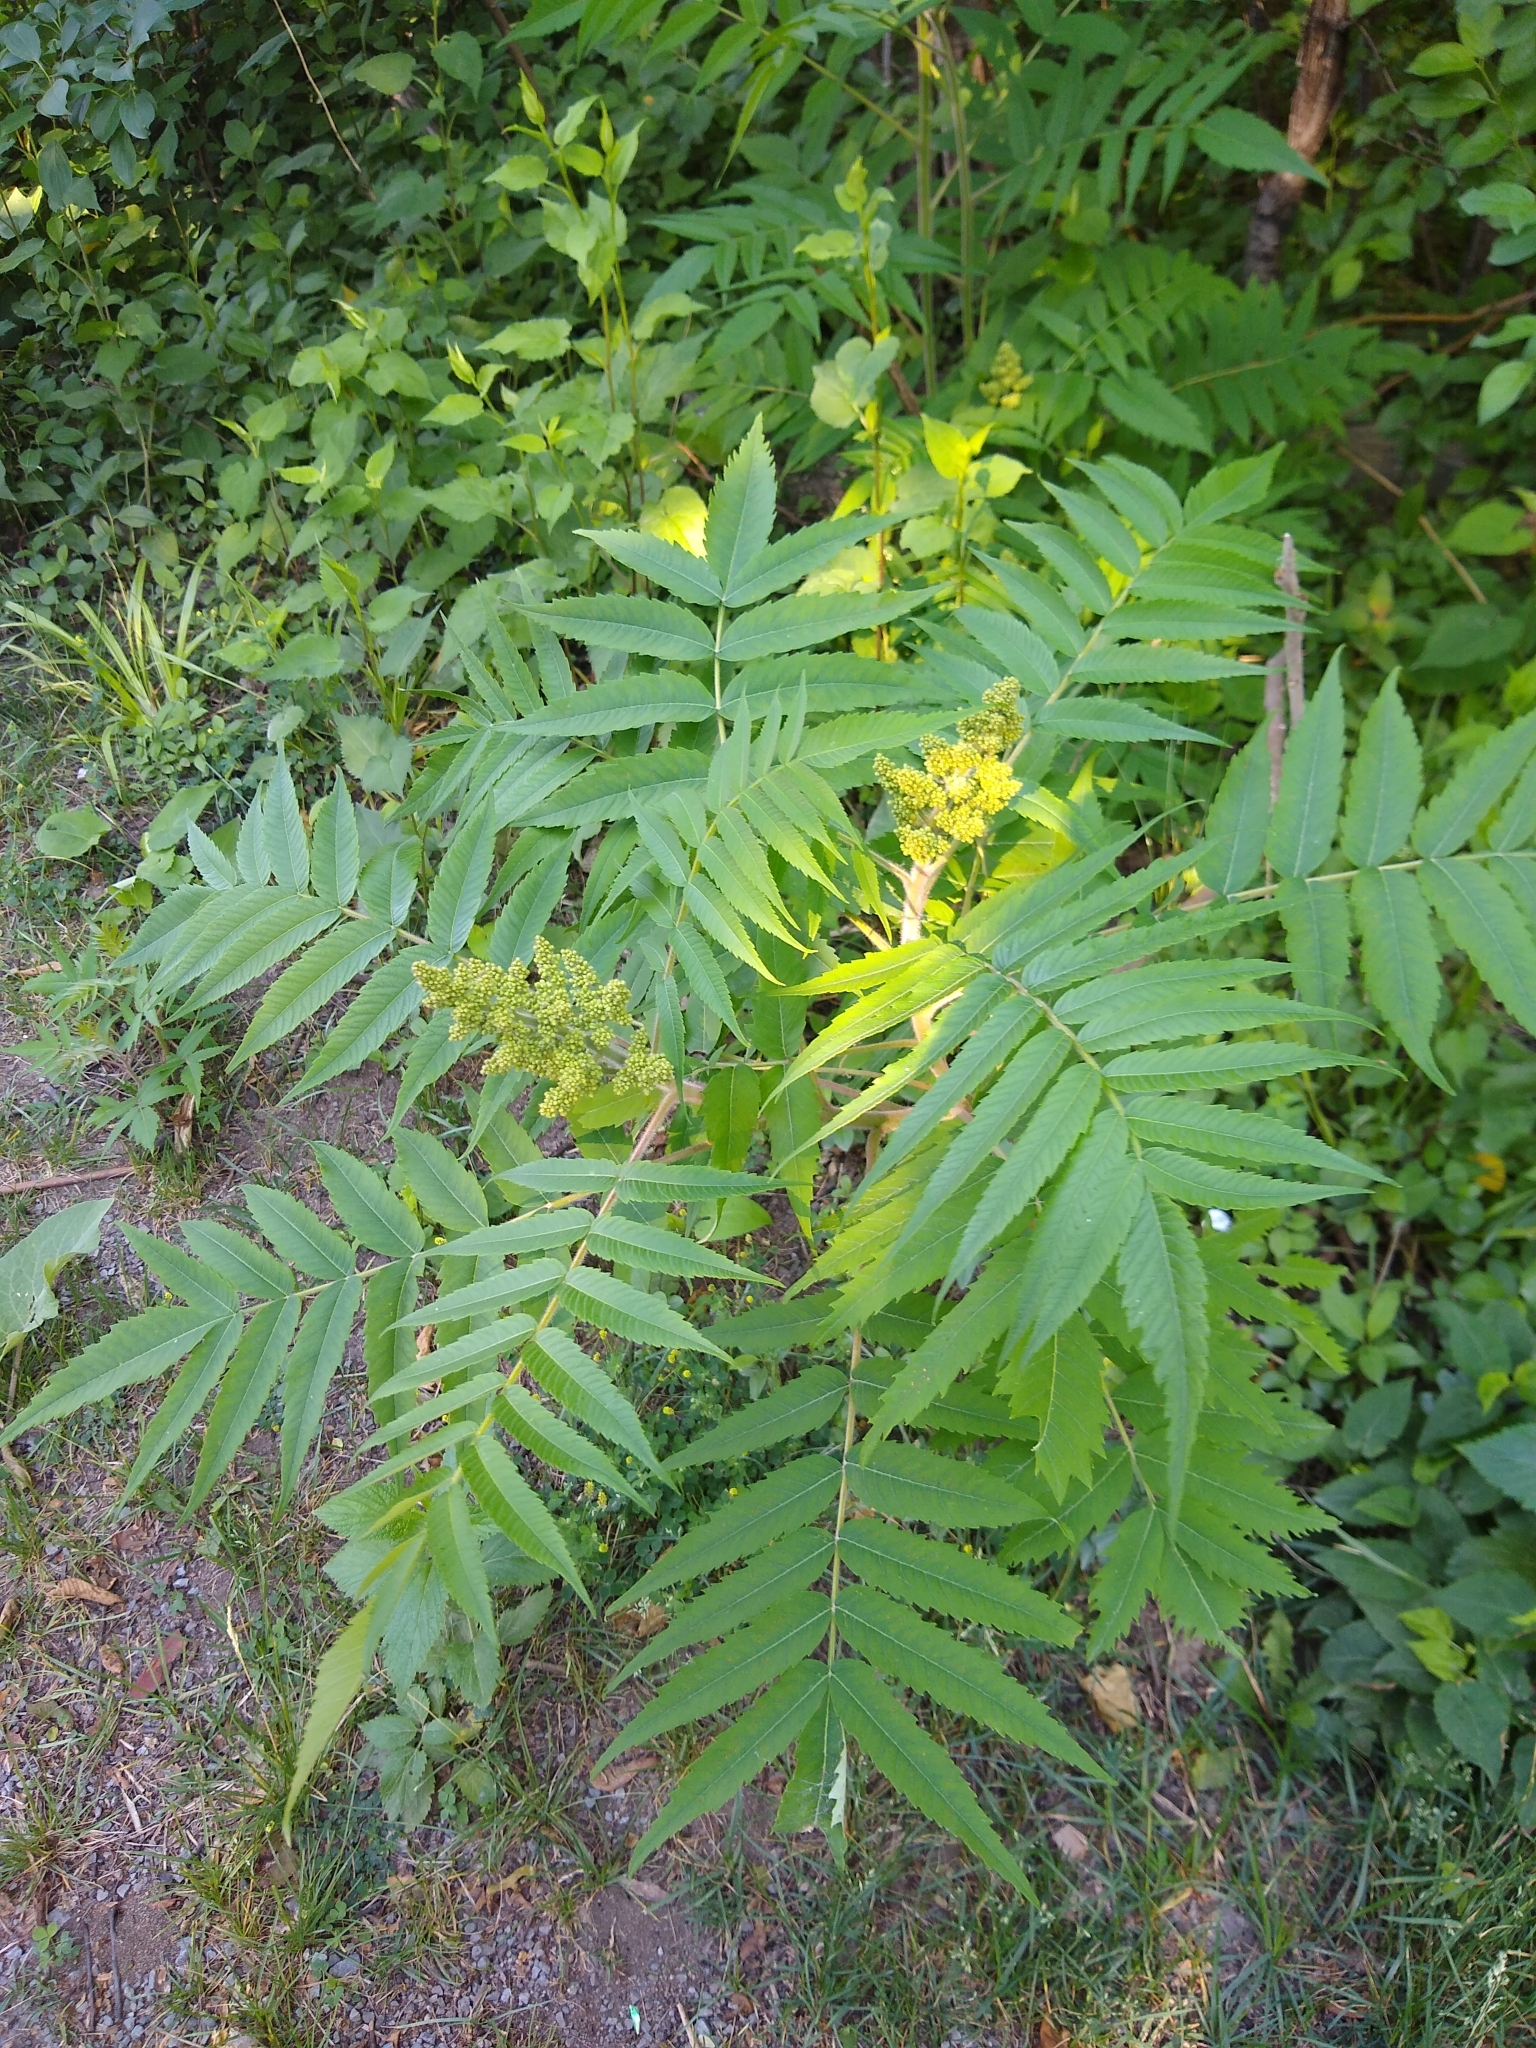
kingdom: Plantae
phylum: Tracheophyta
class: Magnoliopsida
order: Sapindales
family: Anacardiaceae
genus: Rhus
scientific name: Rhus typhina
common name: Staghorn sumac
